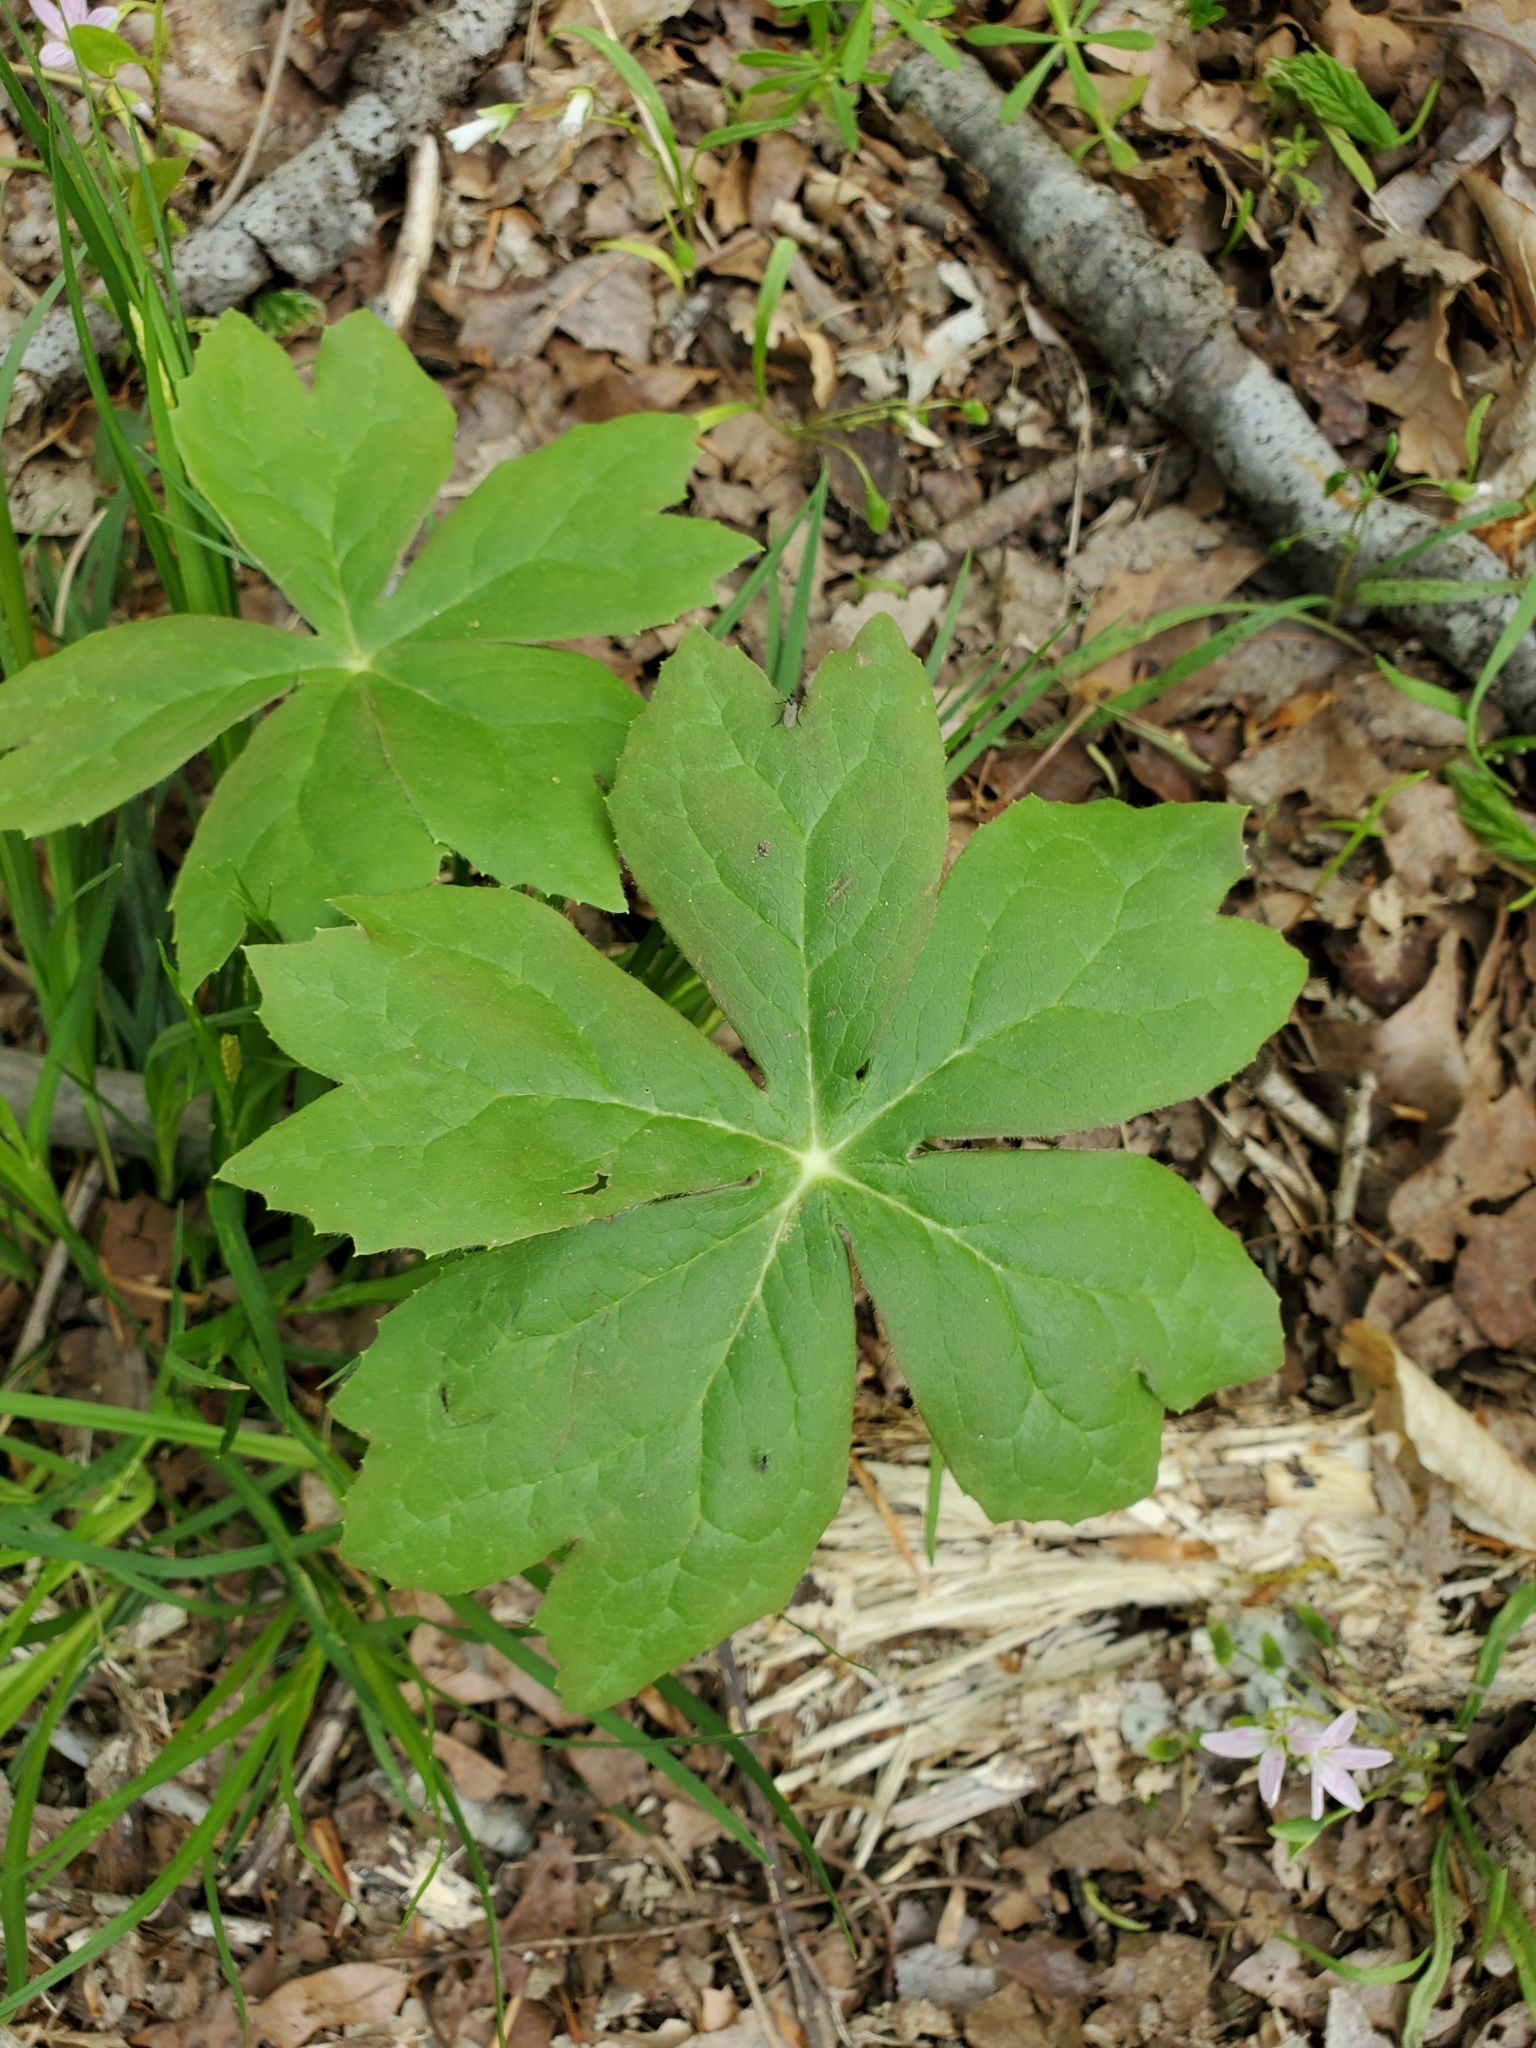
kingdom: Plantae
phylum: Tracheophyta
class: Magnoliopsida
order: Ranunculales
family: Berberidaceae
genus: Podophyllum
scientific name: Podophyllum peltatum
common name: Wild mandrake
